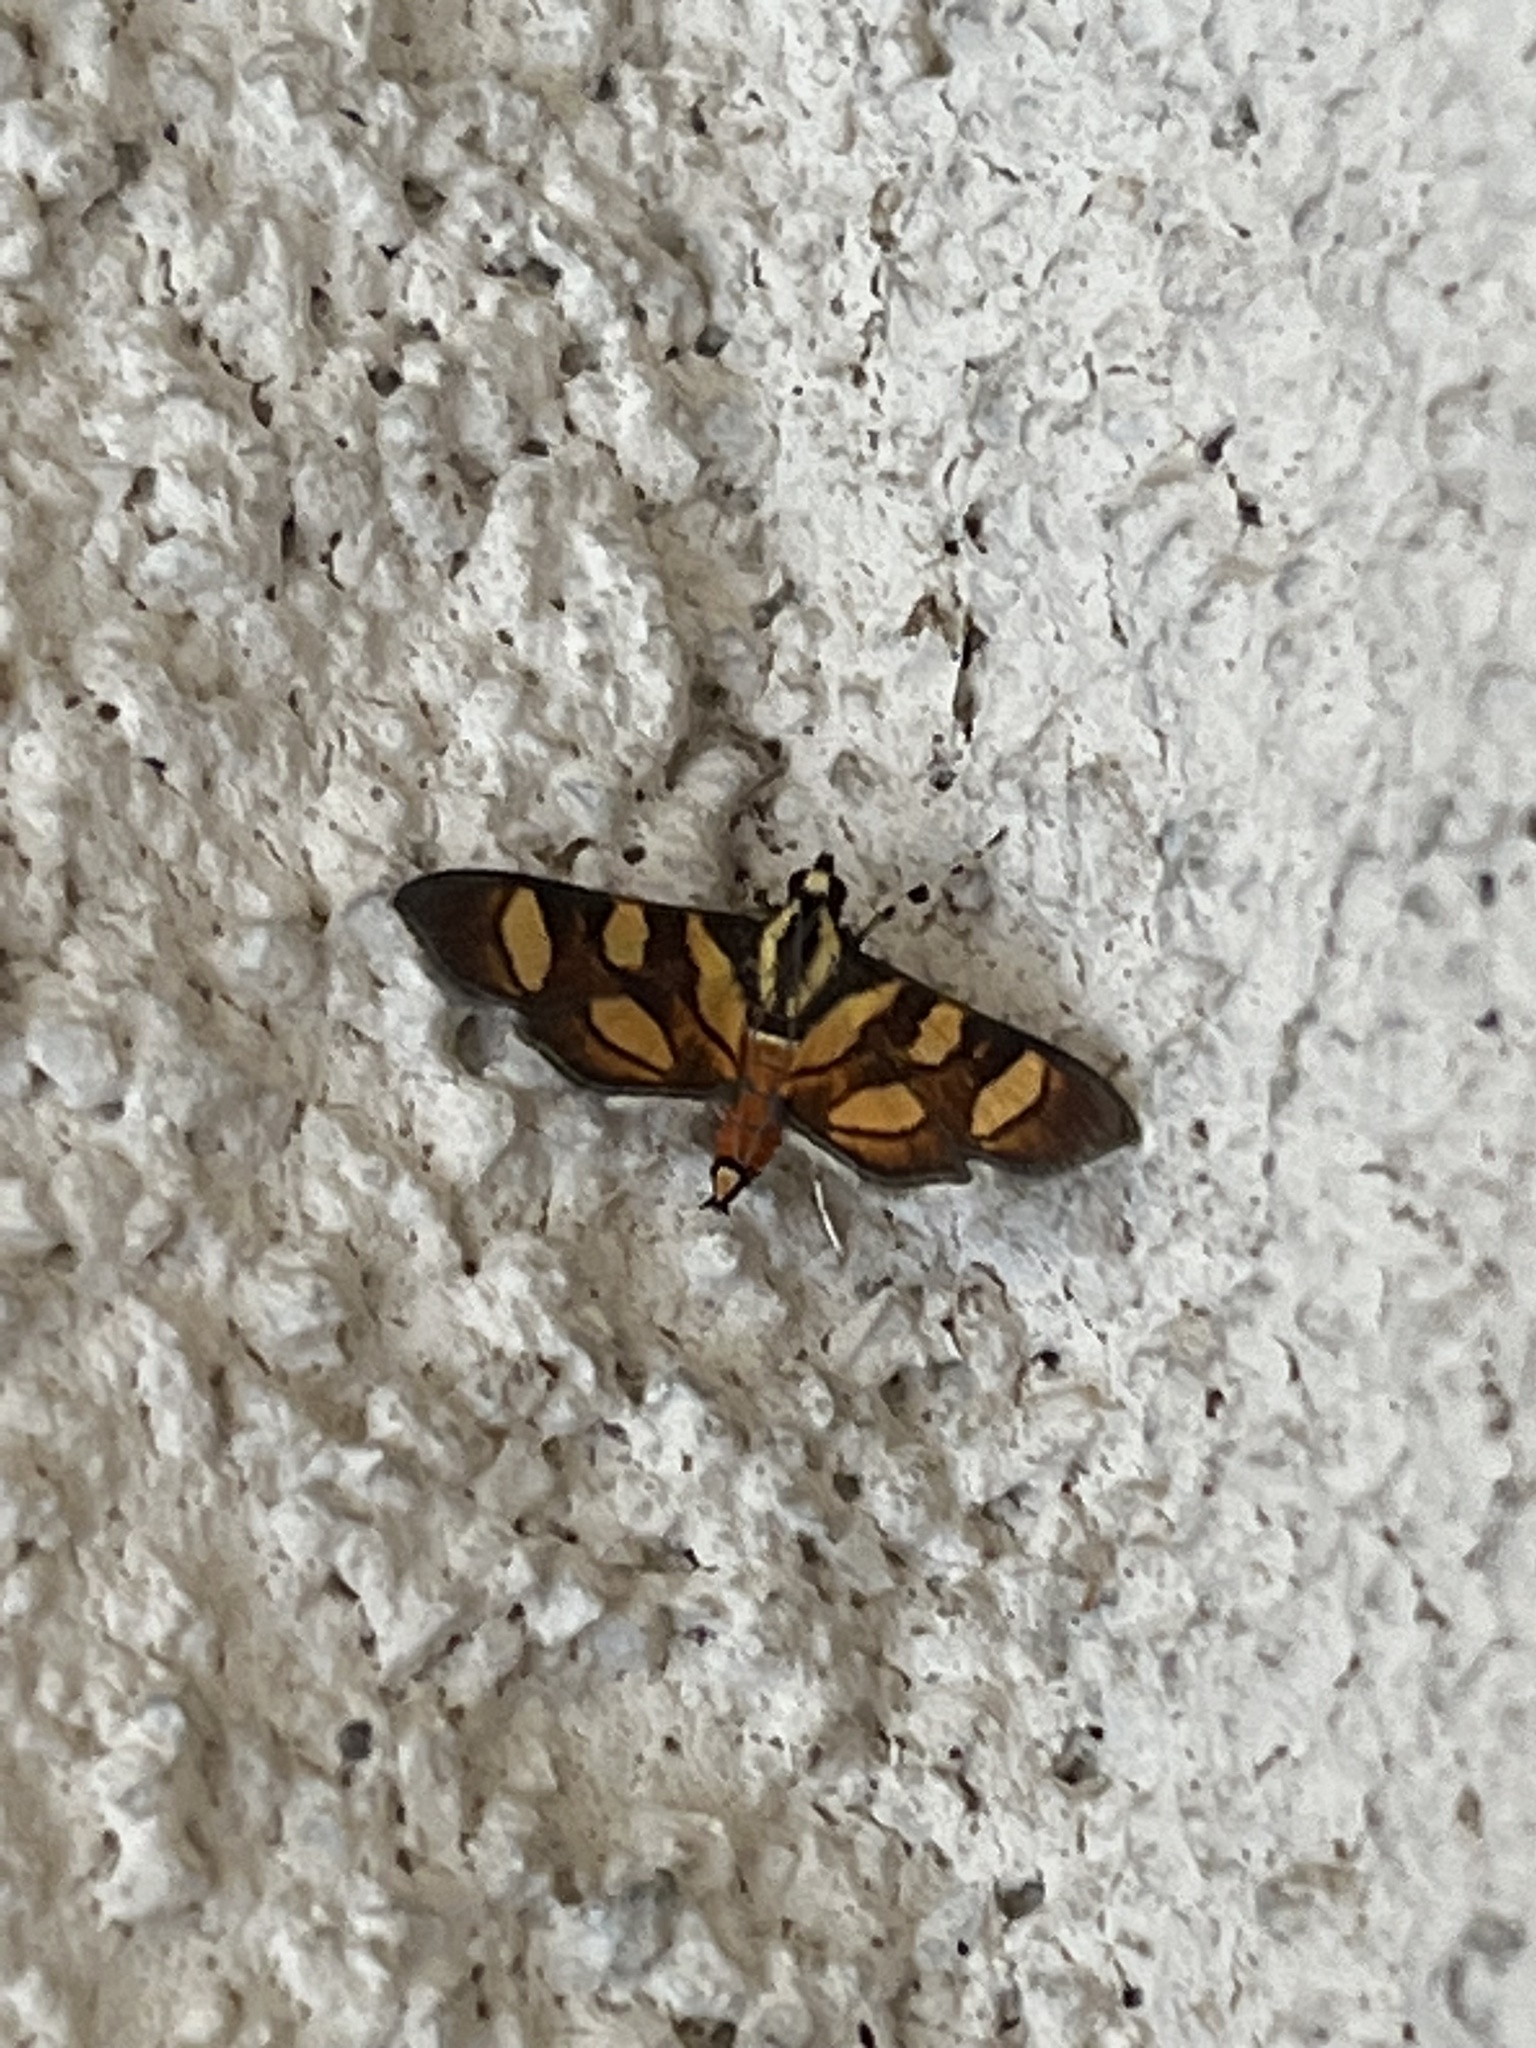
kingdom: Animalia
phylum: Arthropoda
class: Insecta
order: Lepidoptera
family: Crambidae
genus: Syngamia
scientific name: Syngamia florella
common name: Orange-spotted flower moth
